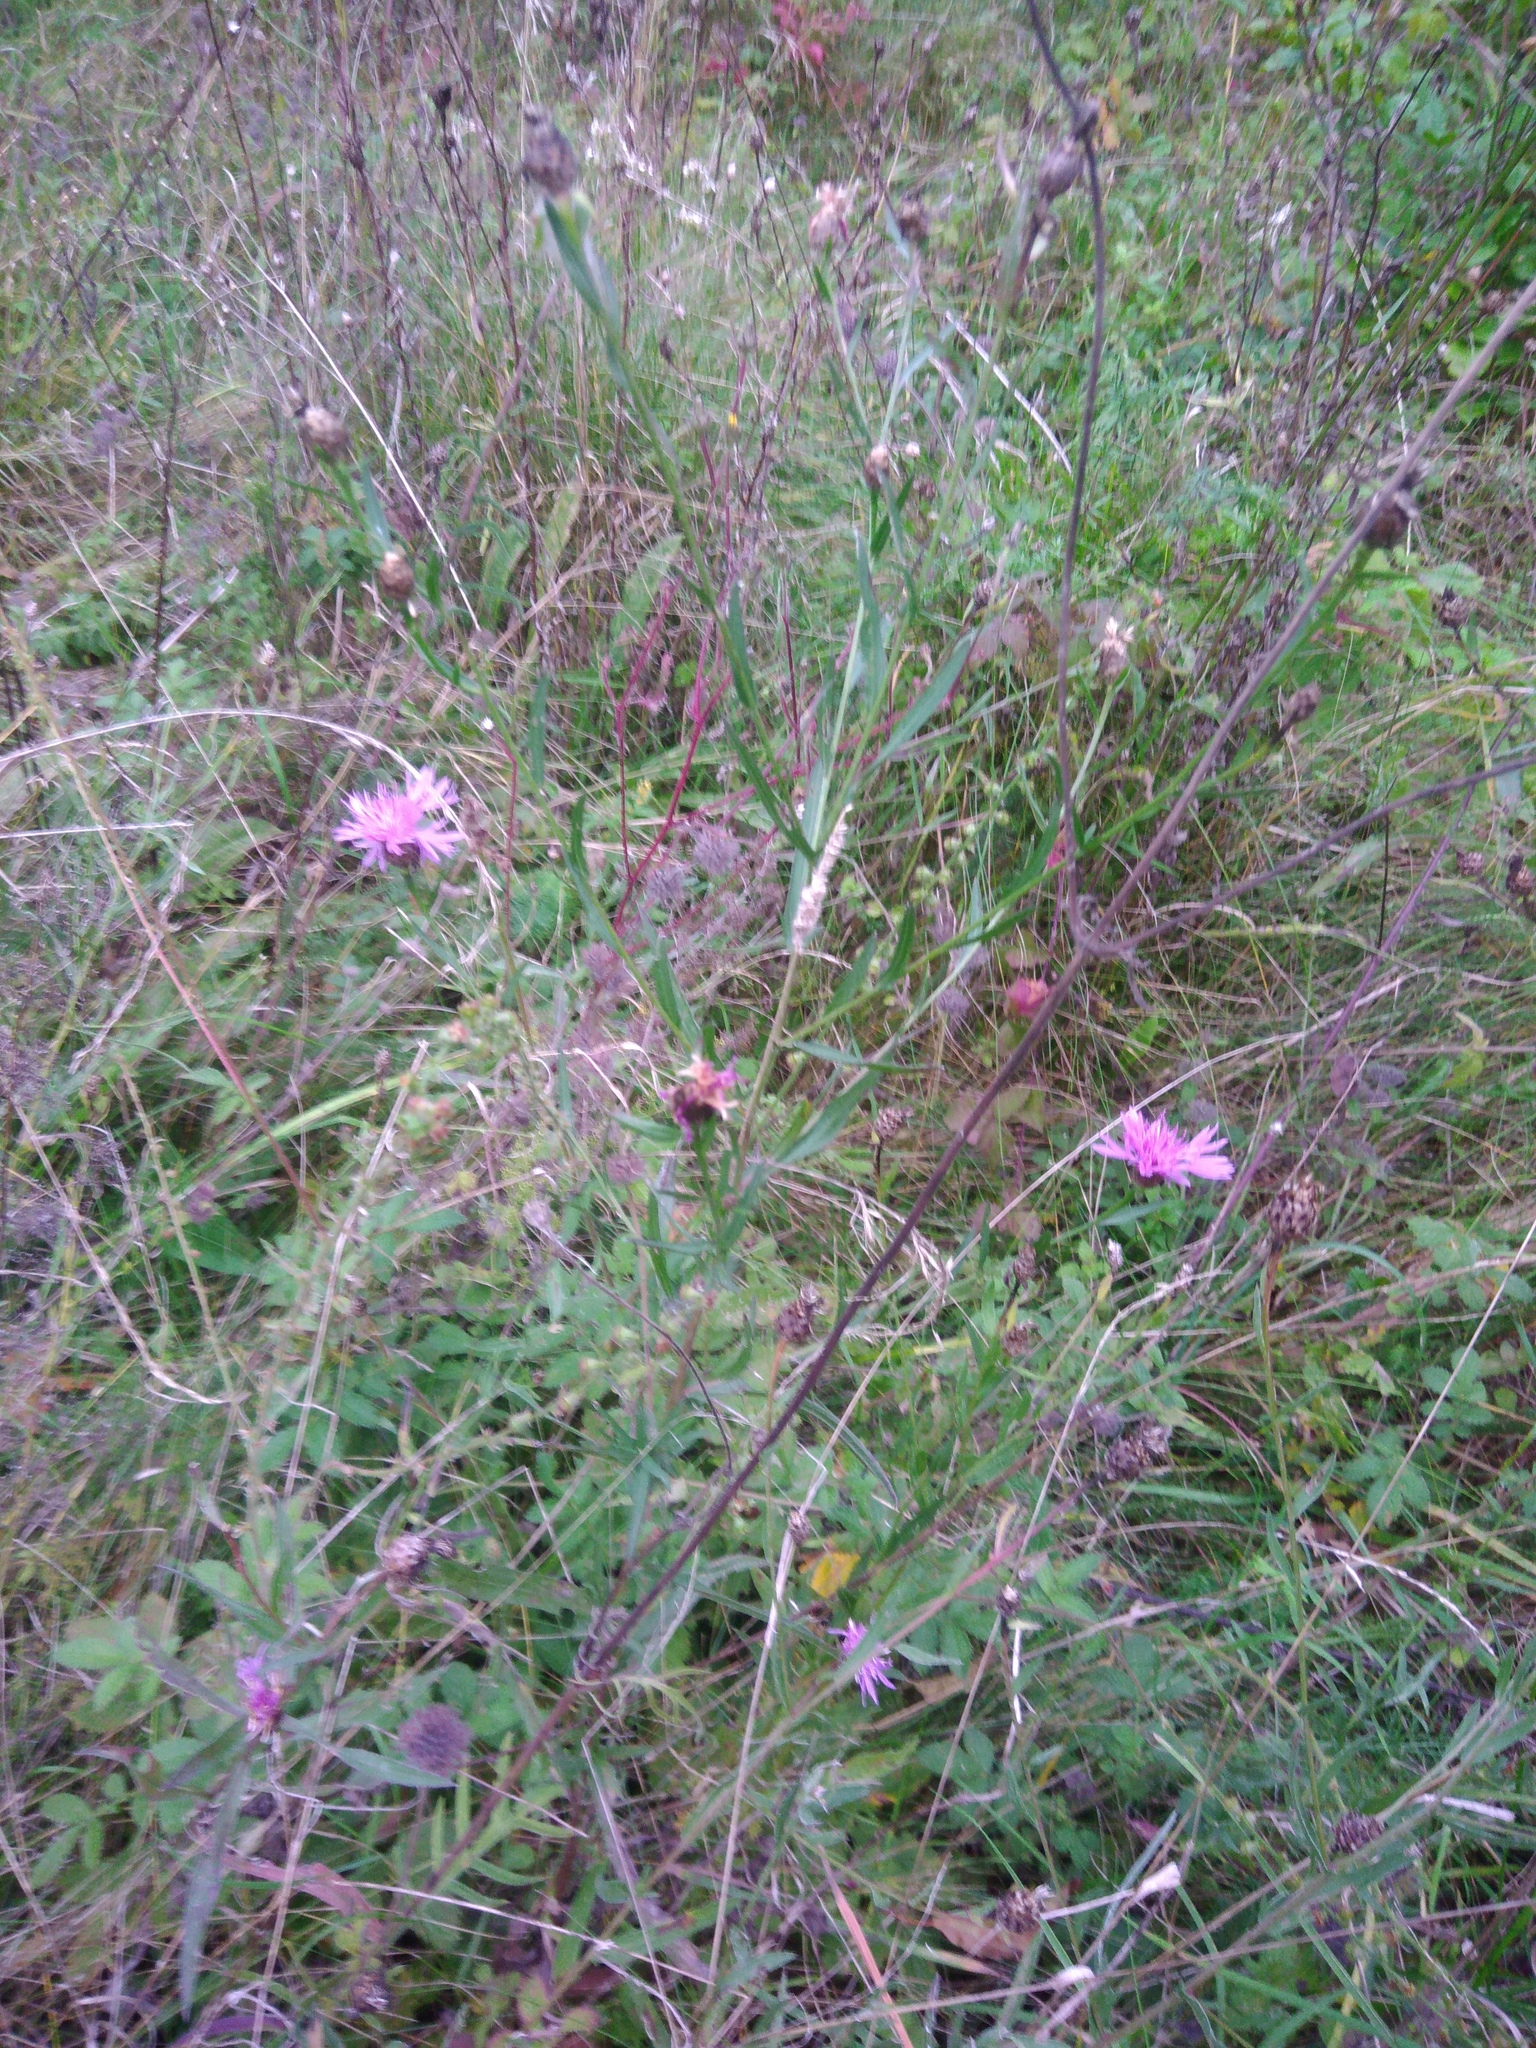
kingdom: Plantae
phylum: Tracheophyta
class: Magnoliopsida
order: Asterales
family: Asteraceae
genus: Centaurea
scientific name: Centaurea jacea
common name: Brown knapweed
